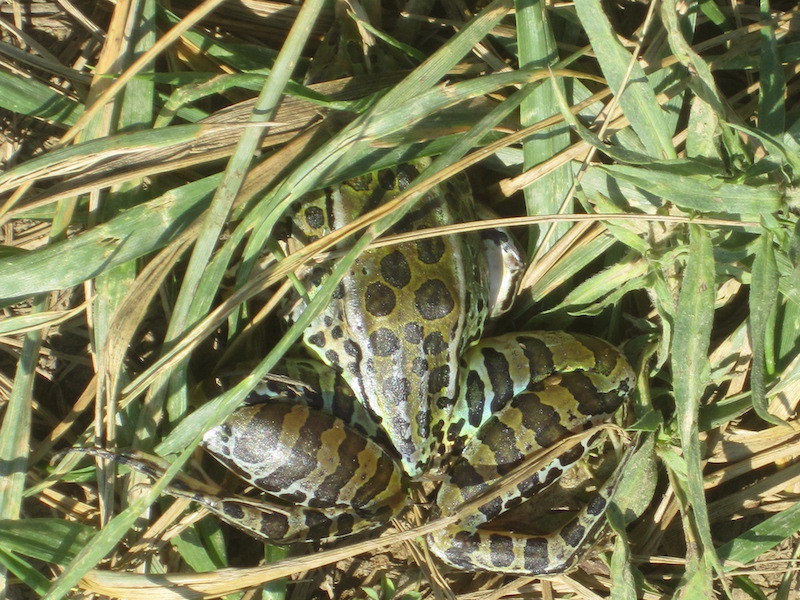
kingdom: Animalia
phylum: Chordata
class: Amphibia
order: Anura
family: Ranidae
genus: Lithobates
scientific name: Lithobates pipiens
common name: Northern leopard frog
